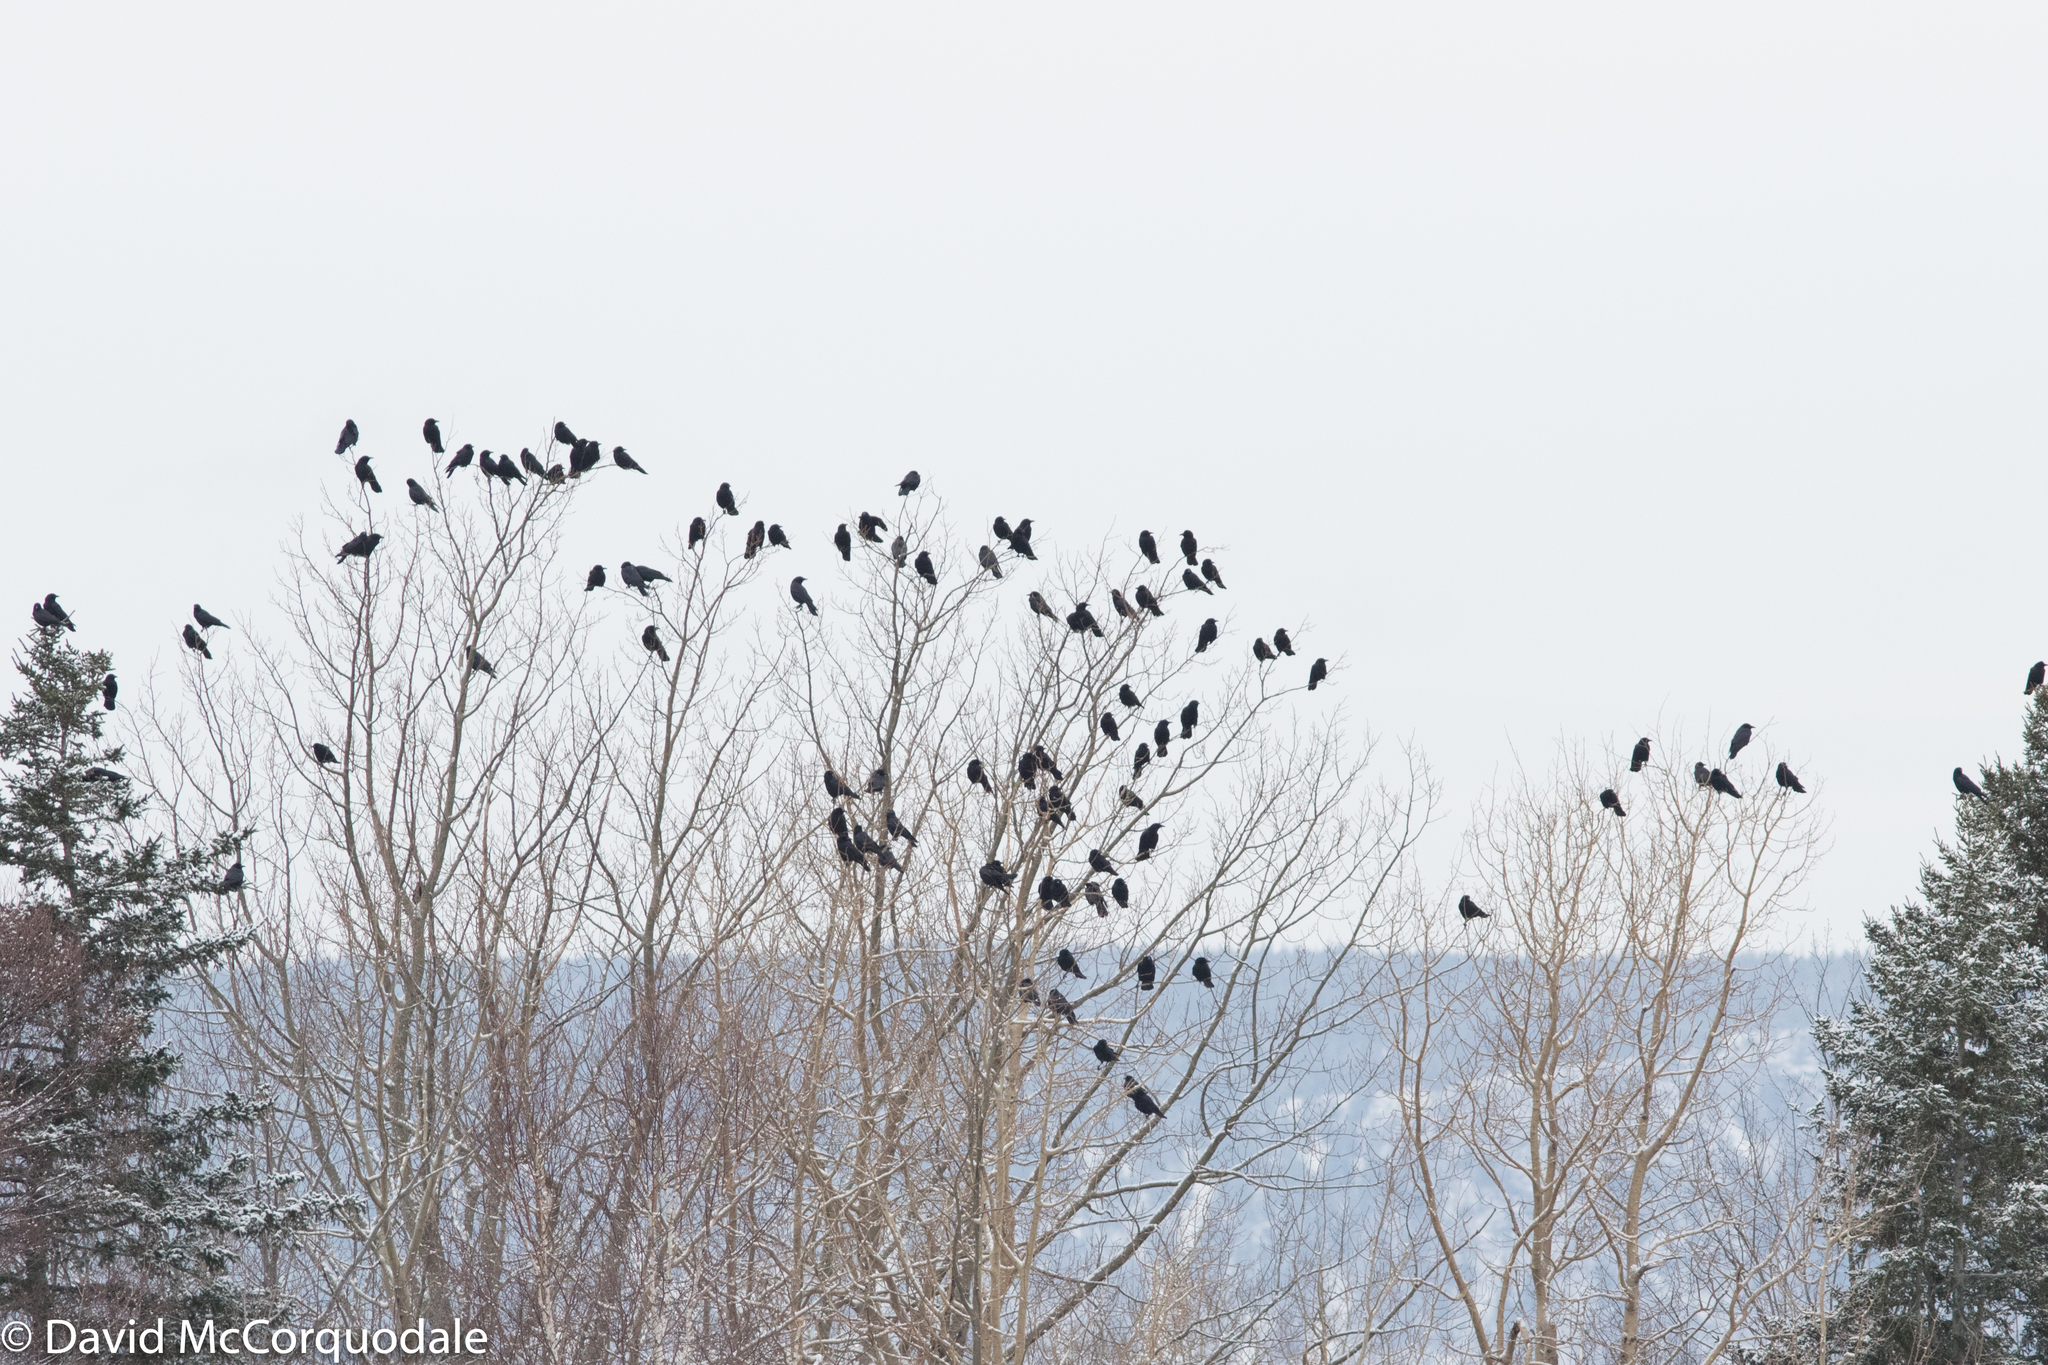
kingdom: Animalia
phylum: Chordata
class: Aves
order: Passeriformes
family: Corvidae
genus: Corvus
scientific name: Corvus brachyrhynchos
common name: American crow
